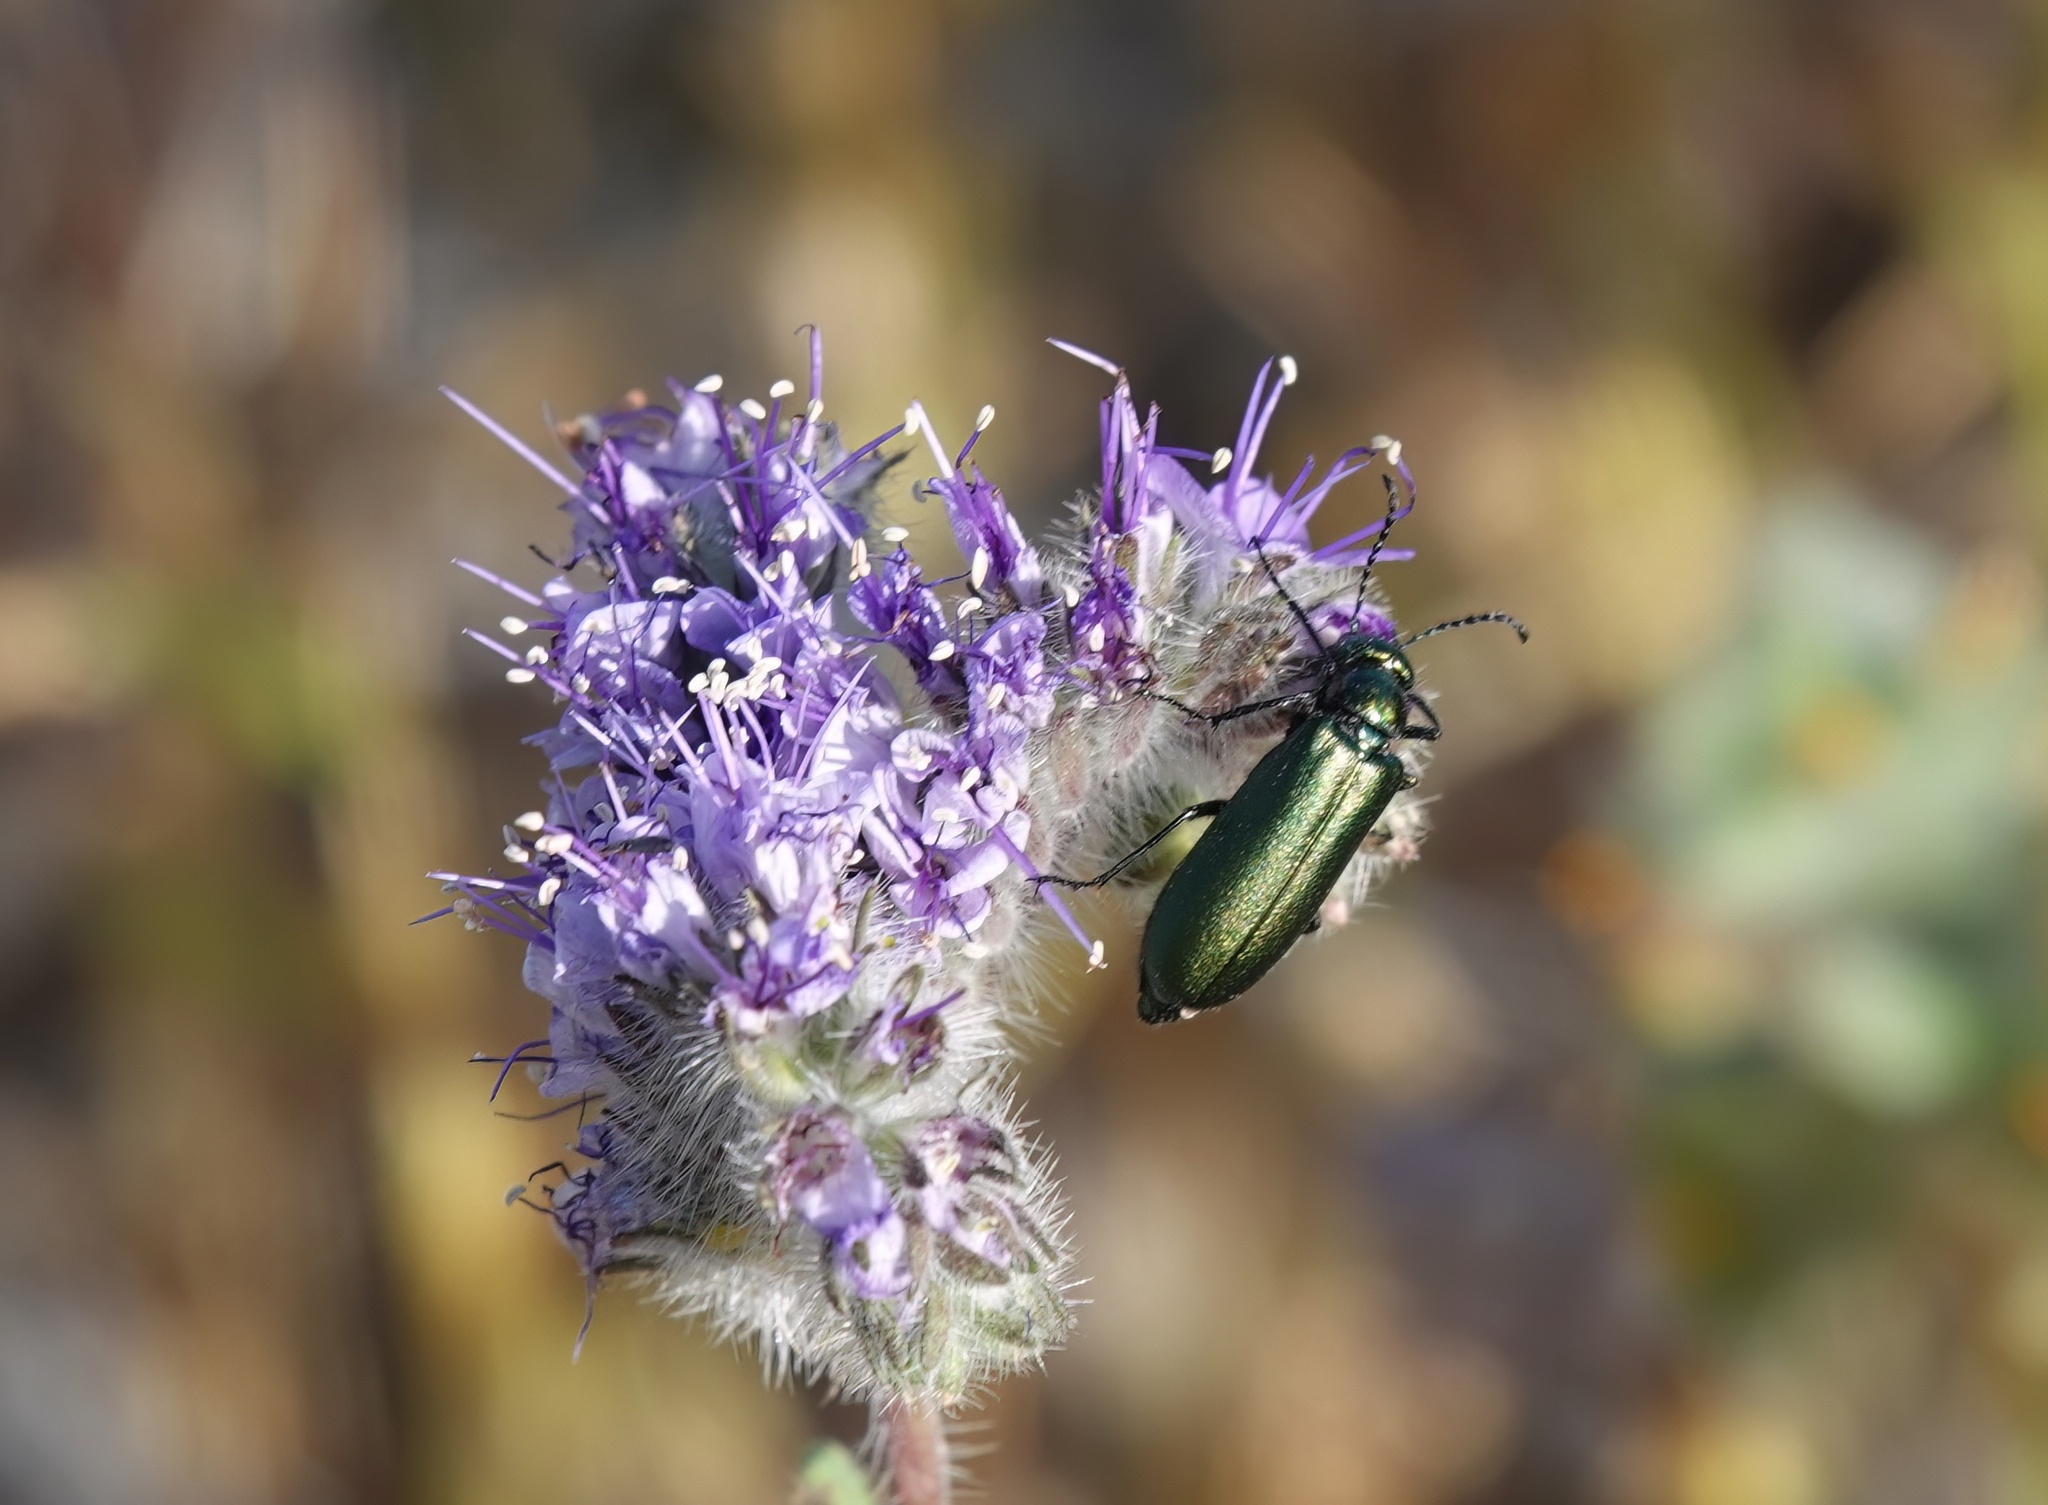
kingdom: Animalia
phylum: Arthropoda
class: Insecta
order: Coleoptera
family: Meloidae
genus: Lytta
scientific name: Lytta stygica
